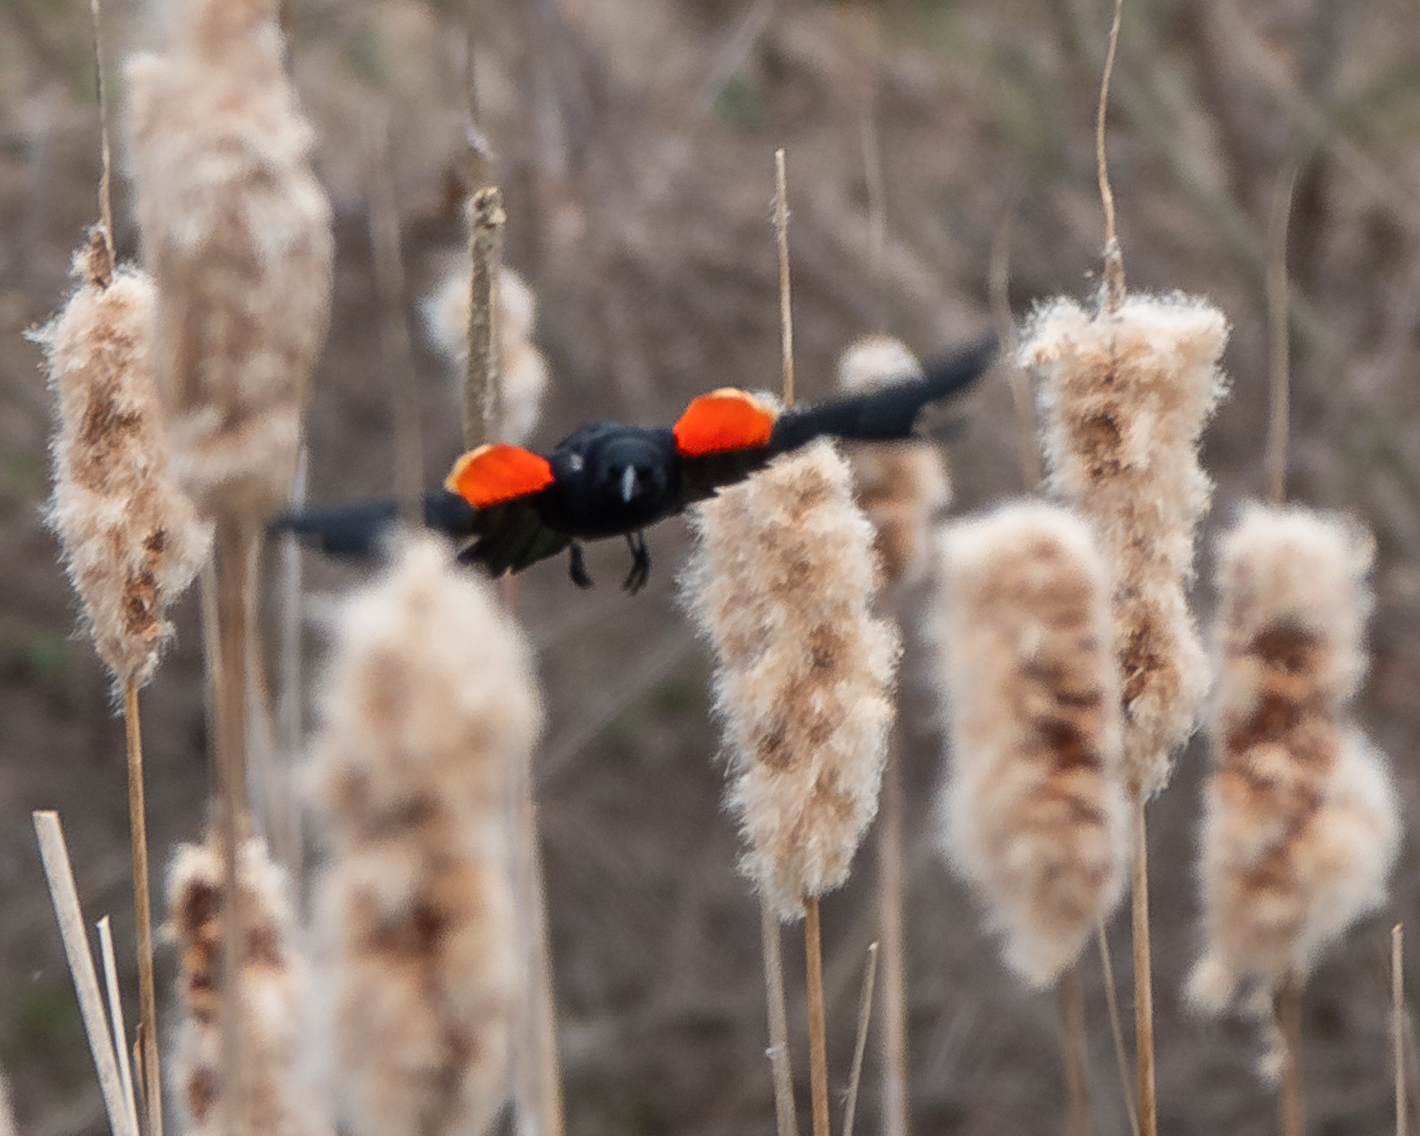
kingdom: Animalia
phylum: Chordata
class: Aves
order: Passeriformes
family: Icteridae
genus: Agelaius
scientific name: Agelaius phoeniceus
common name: Red-winged blackbird
